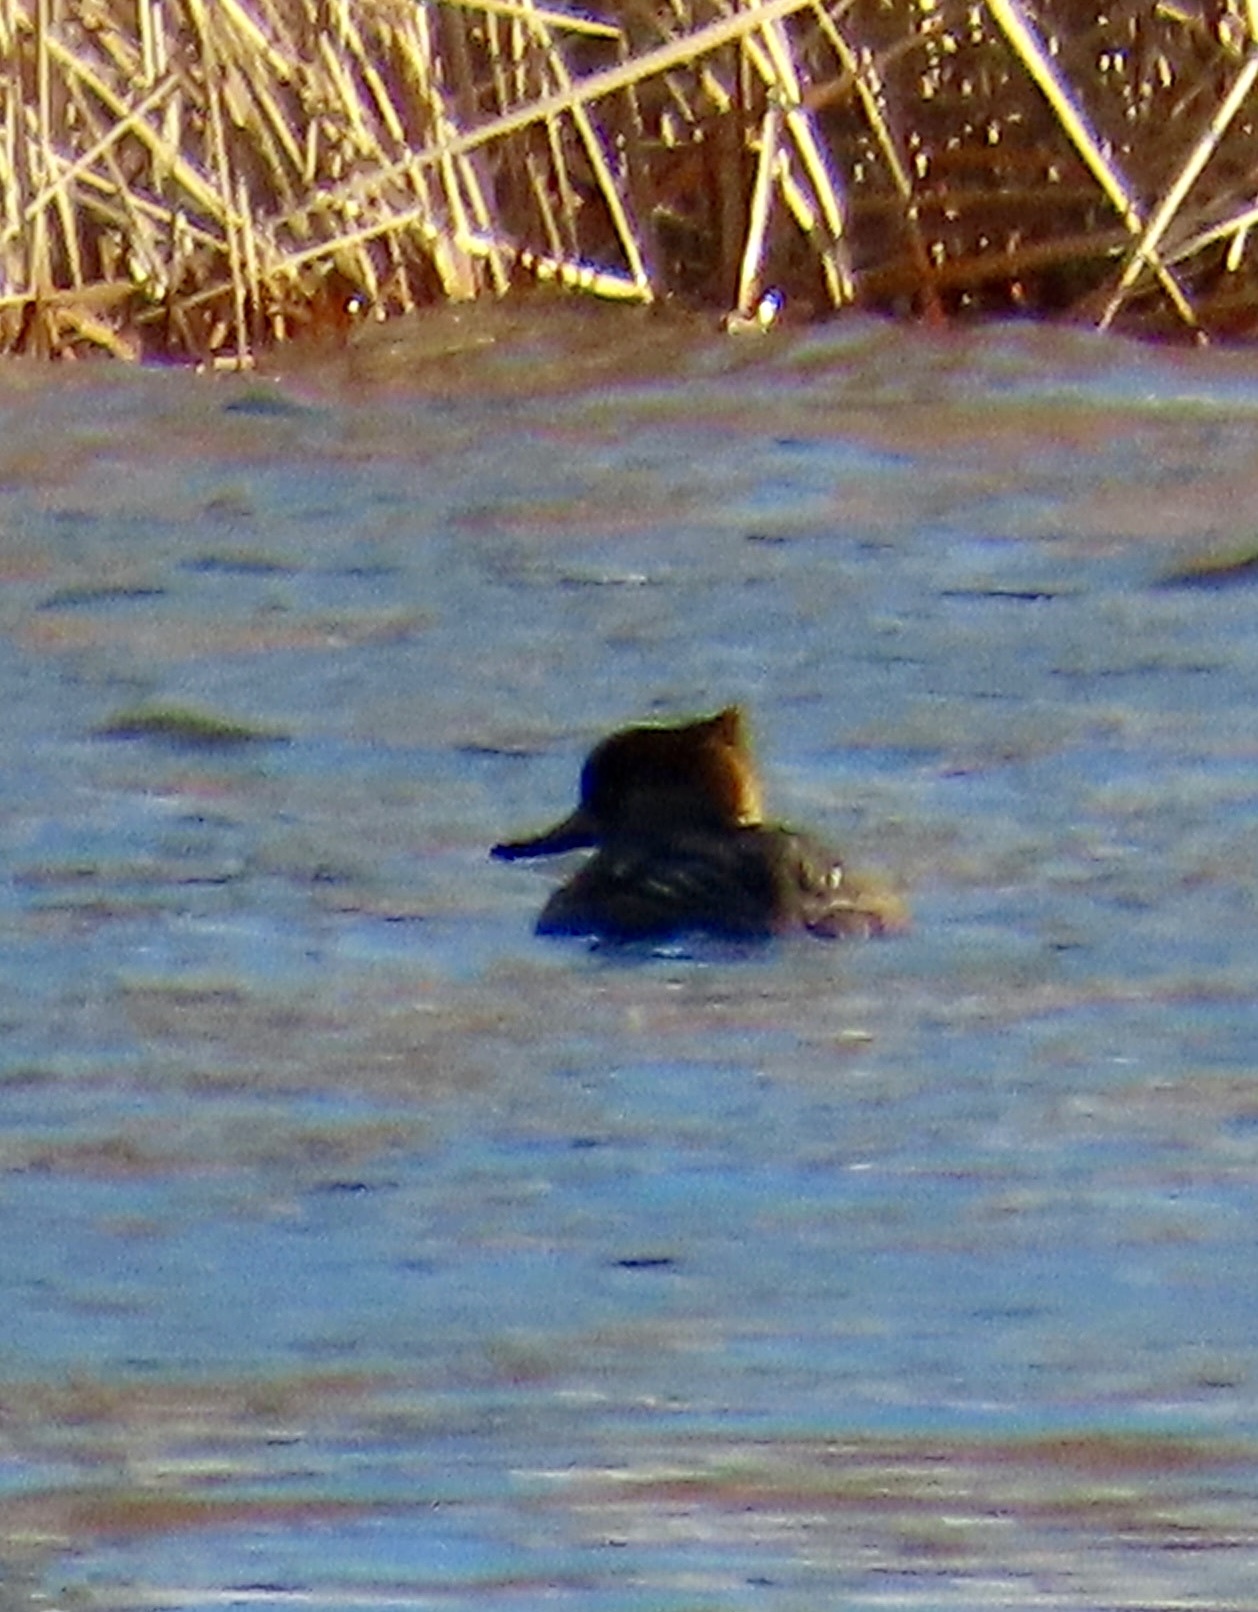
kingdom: Animalia
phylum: Chordata
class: Aves
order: Anseriformes
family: Anatidae
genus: Lophodytes
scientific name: Lophodytes cucullatus
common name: Hooded merganser
